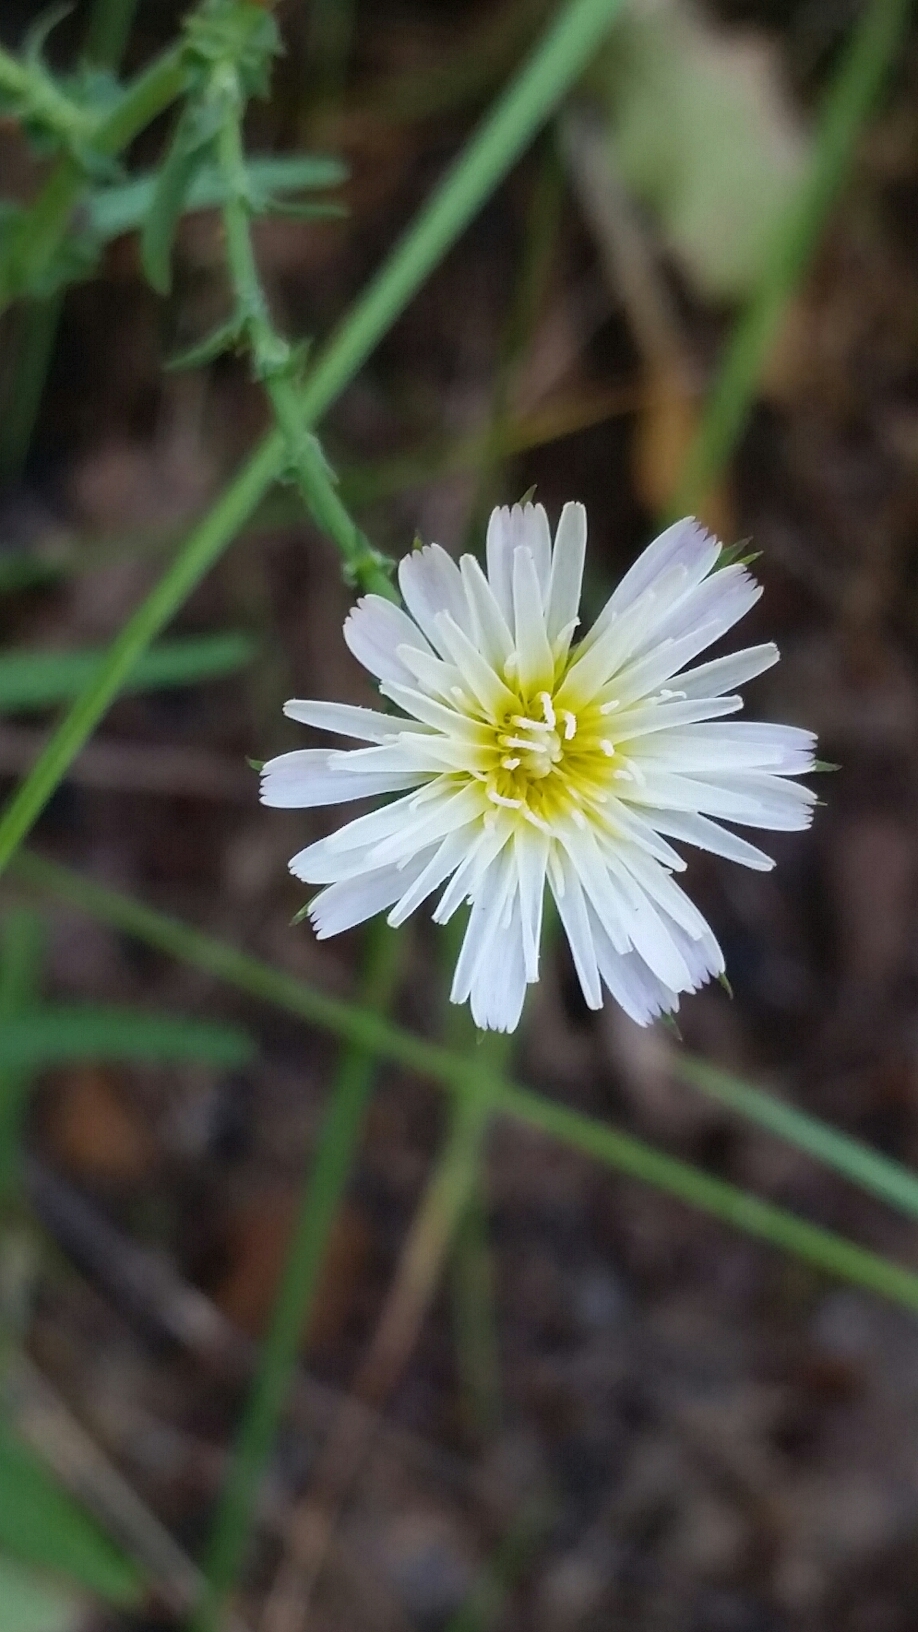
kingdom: Plantae
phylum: Tracheophyta
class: Magnoliopsida
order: Asterales
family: Asteraceae
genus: Rafinesquia
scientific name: Rafinesquia californica
